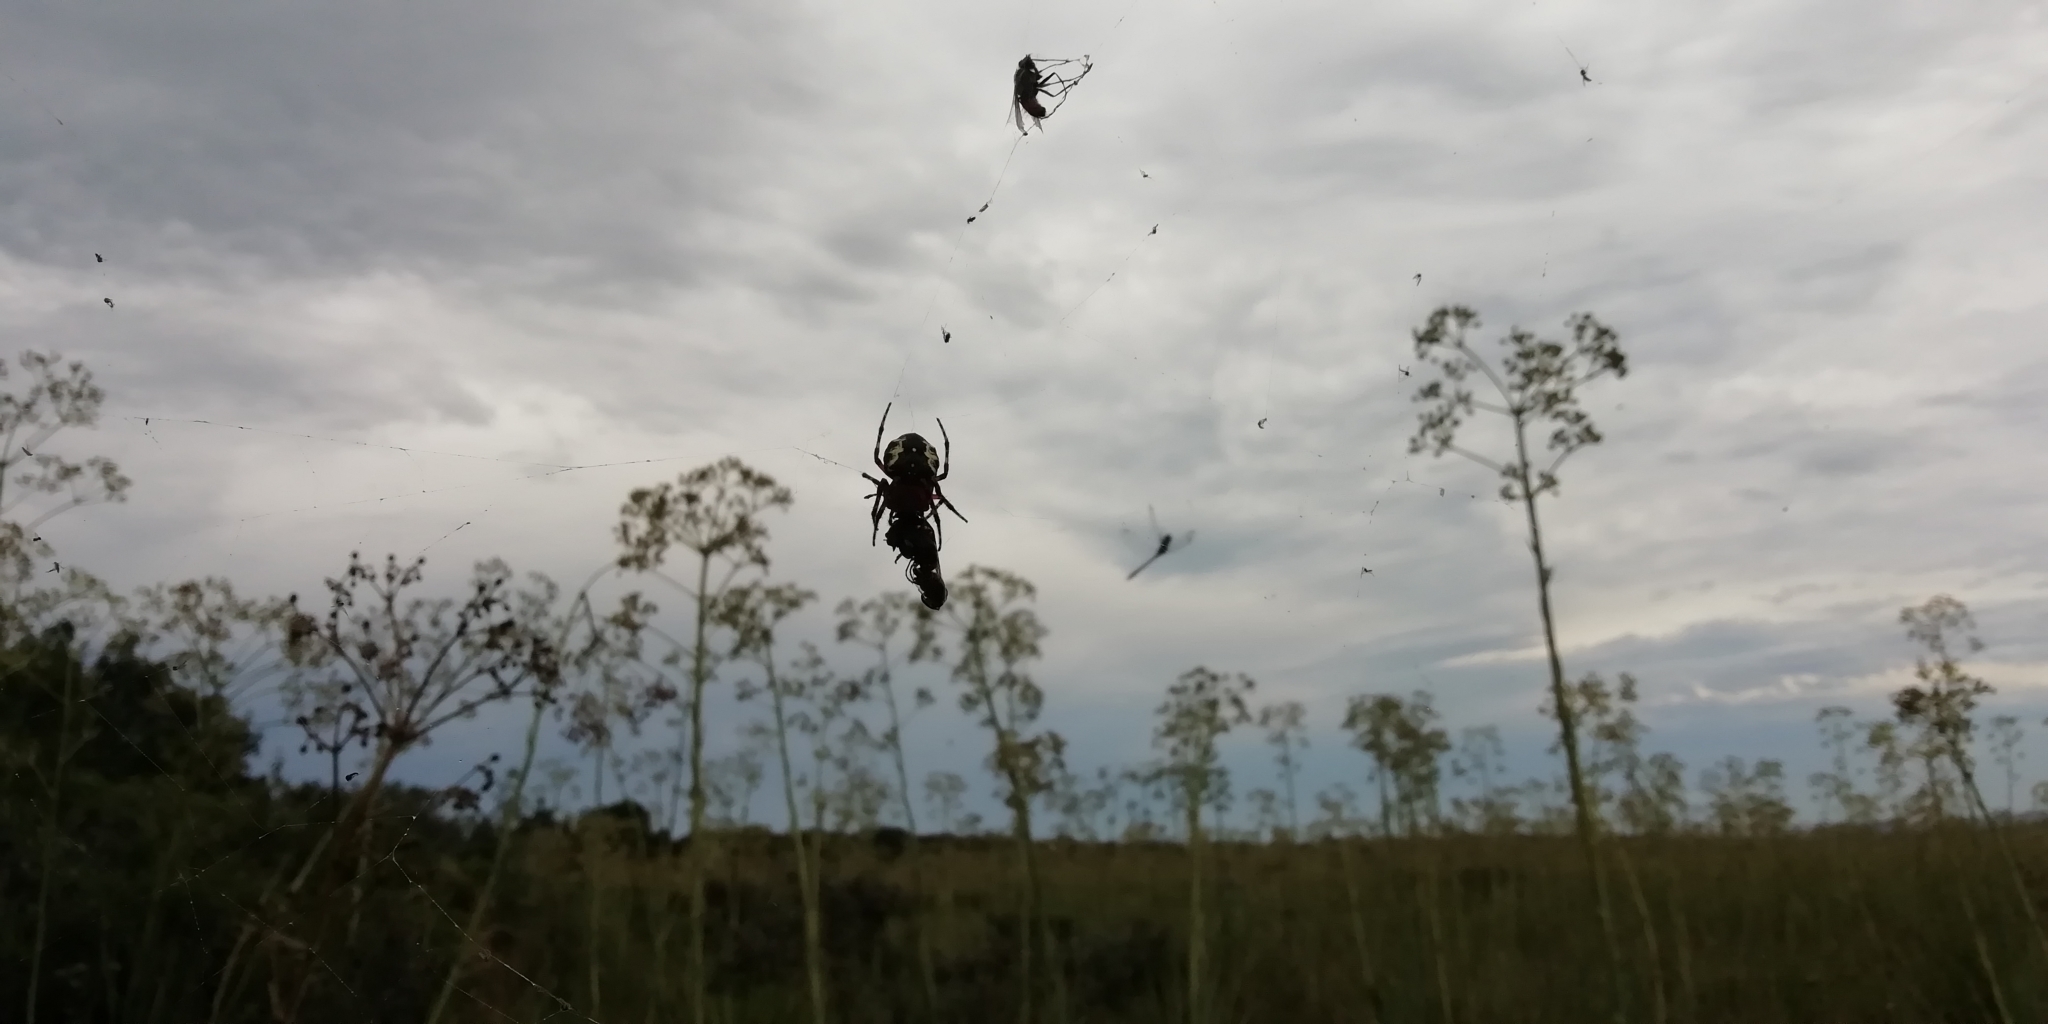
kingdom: Animalia
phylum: Arthropoda
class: Arachnida
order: Araneae
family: Araneidae
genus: Parawixia
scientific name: Parawixia undulata
